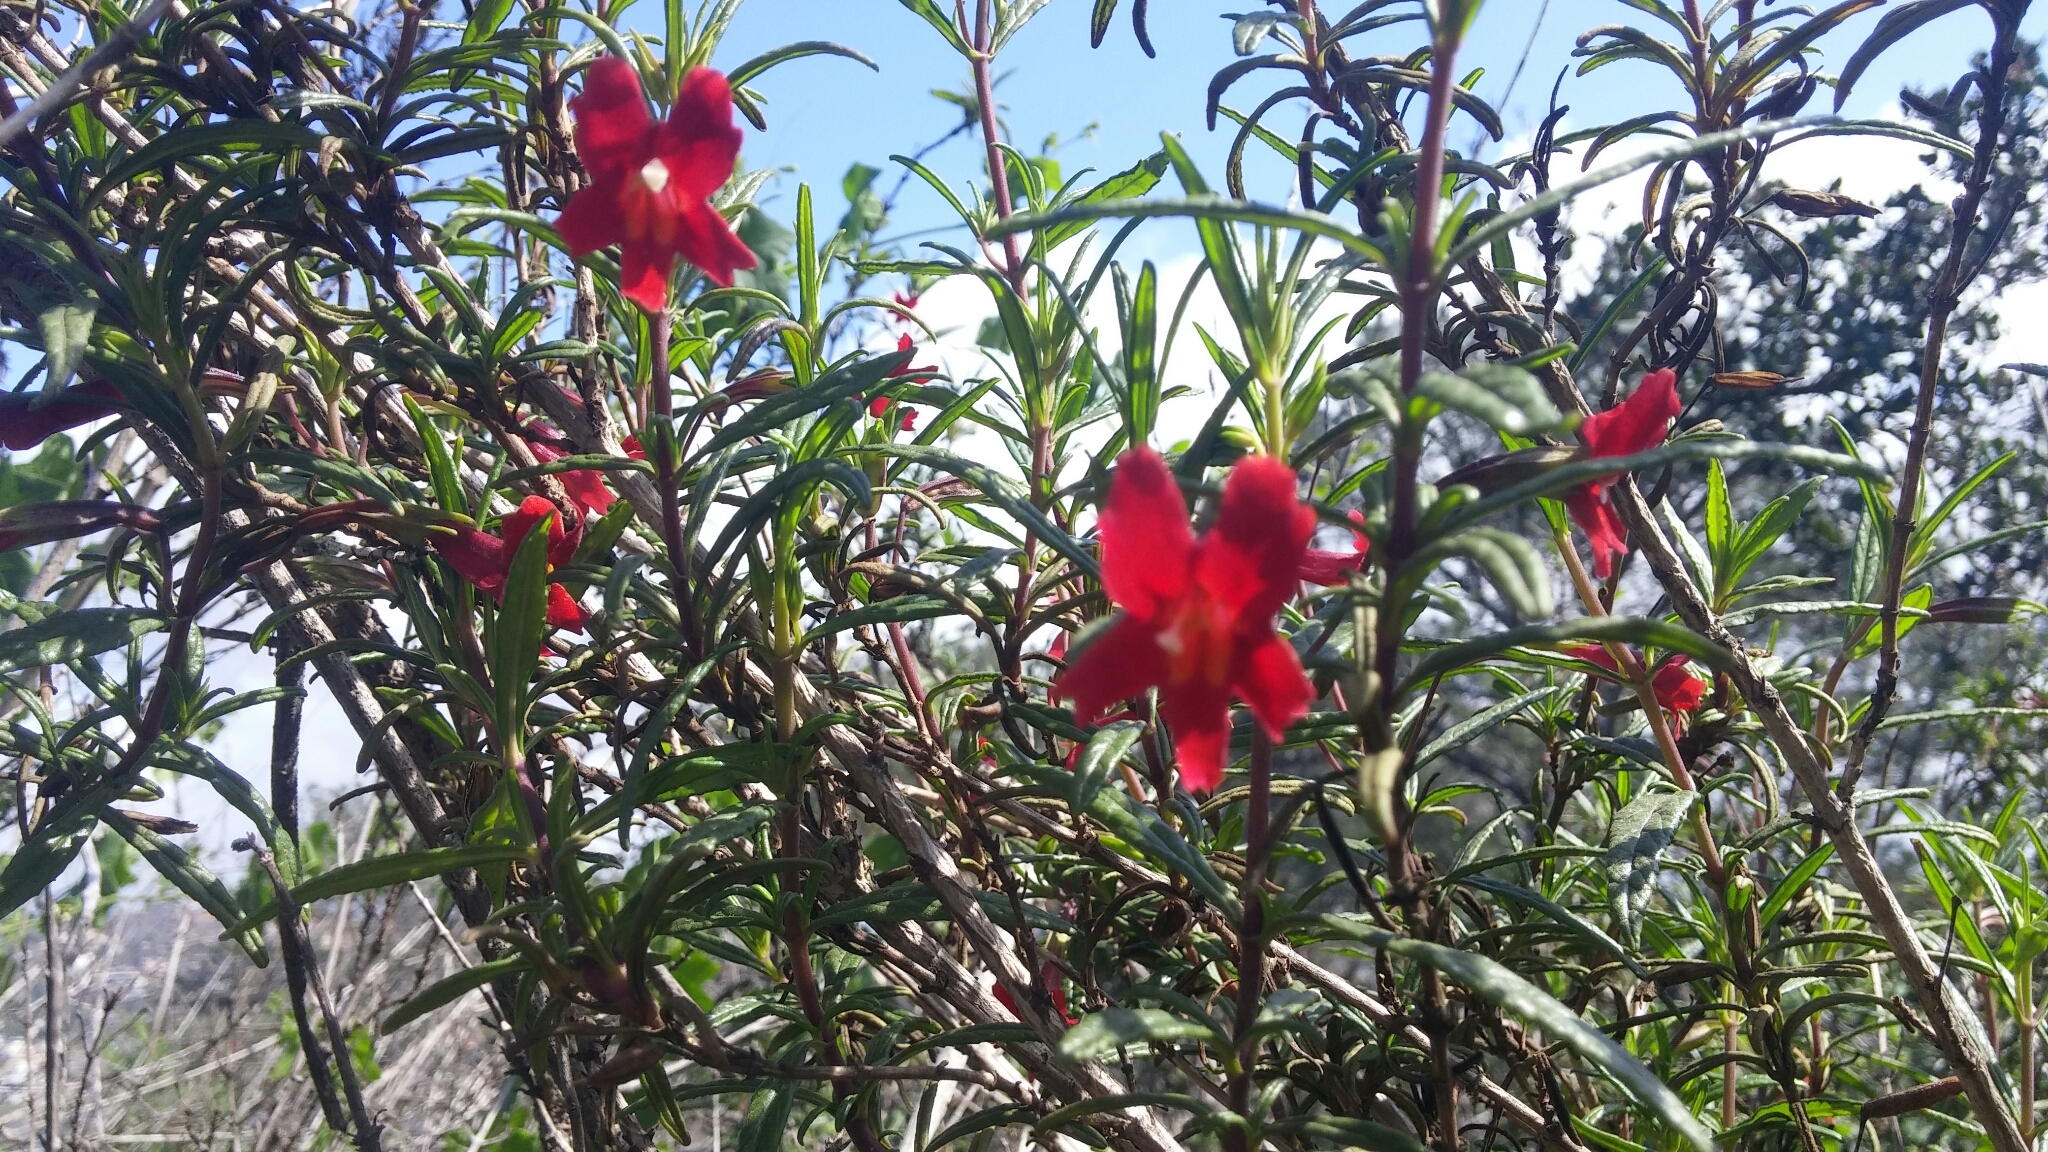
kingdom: Plantae
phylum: Tracheophyta
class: Magnoliopsida
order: Lamiales
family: Phrymaceae
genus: Diplacus
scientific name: Diplacus puniceus
